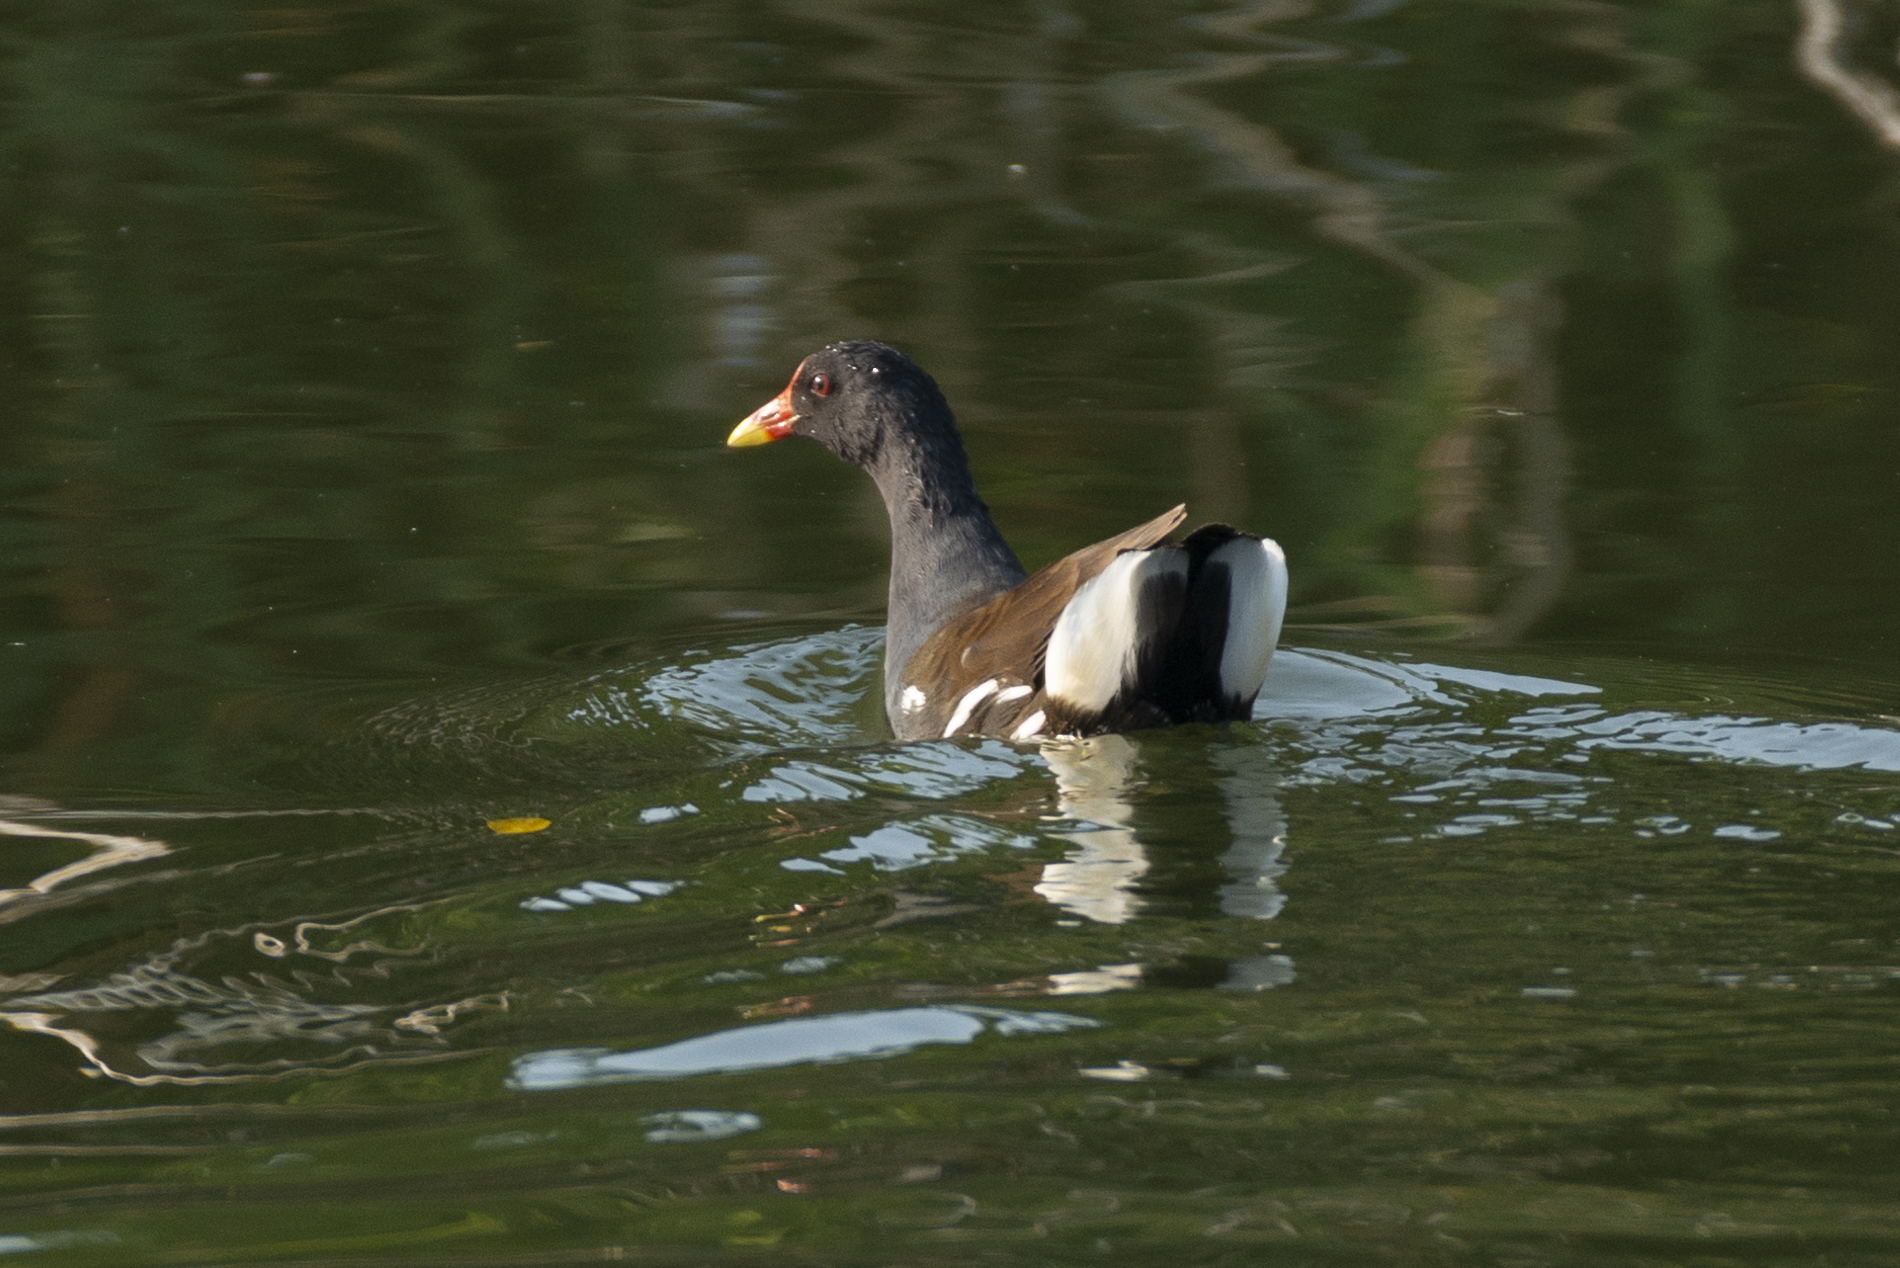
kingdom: Animalia
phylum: Chordata
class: Aves
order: Gruiformes
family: Rallidae
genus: Gallinula
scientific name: Gallinula chloropus
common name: Common moorhen
